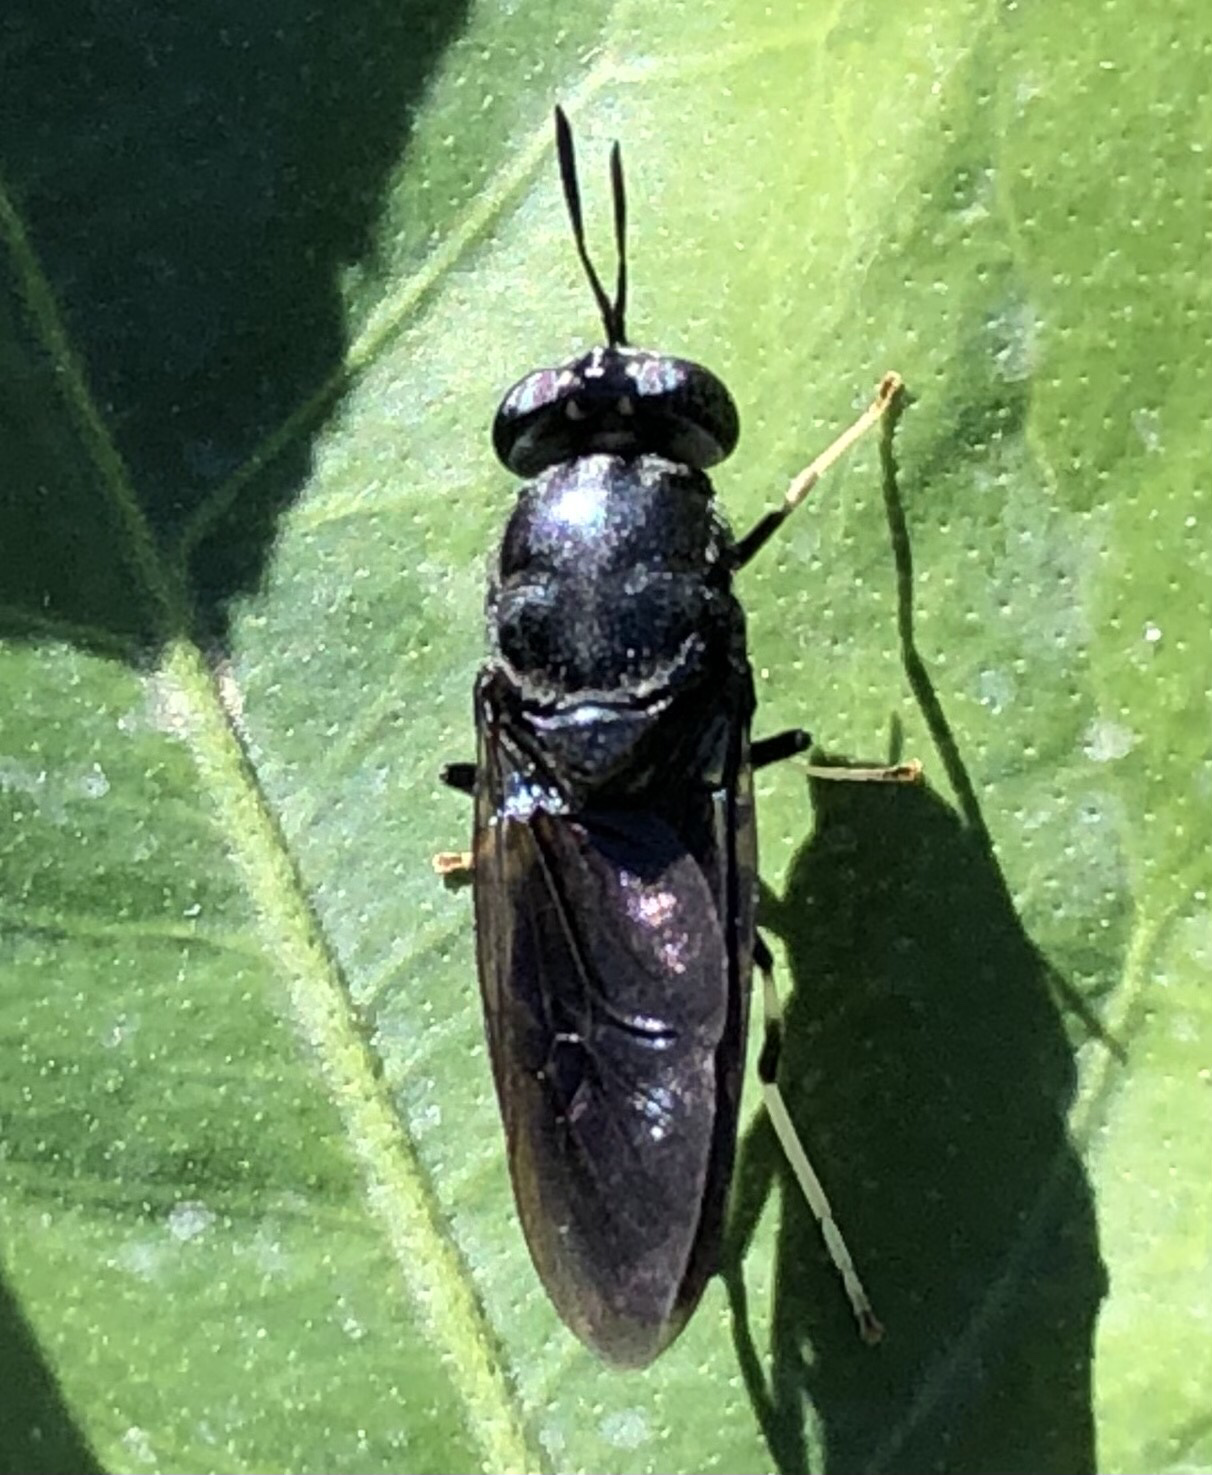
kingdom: Animalia
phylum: Arthropoda
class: Insecta
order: Diptera
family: Stratiomyidae
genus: Hermetia
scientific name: Hermetia illucens
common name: Black soldier fly
